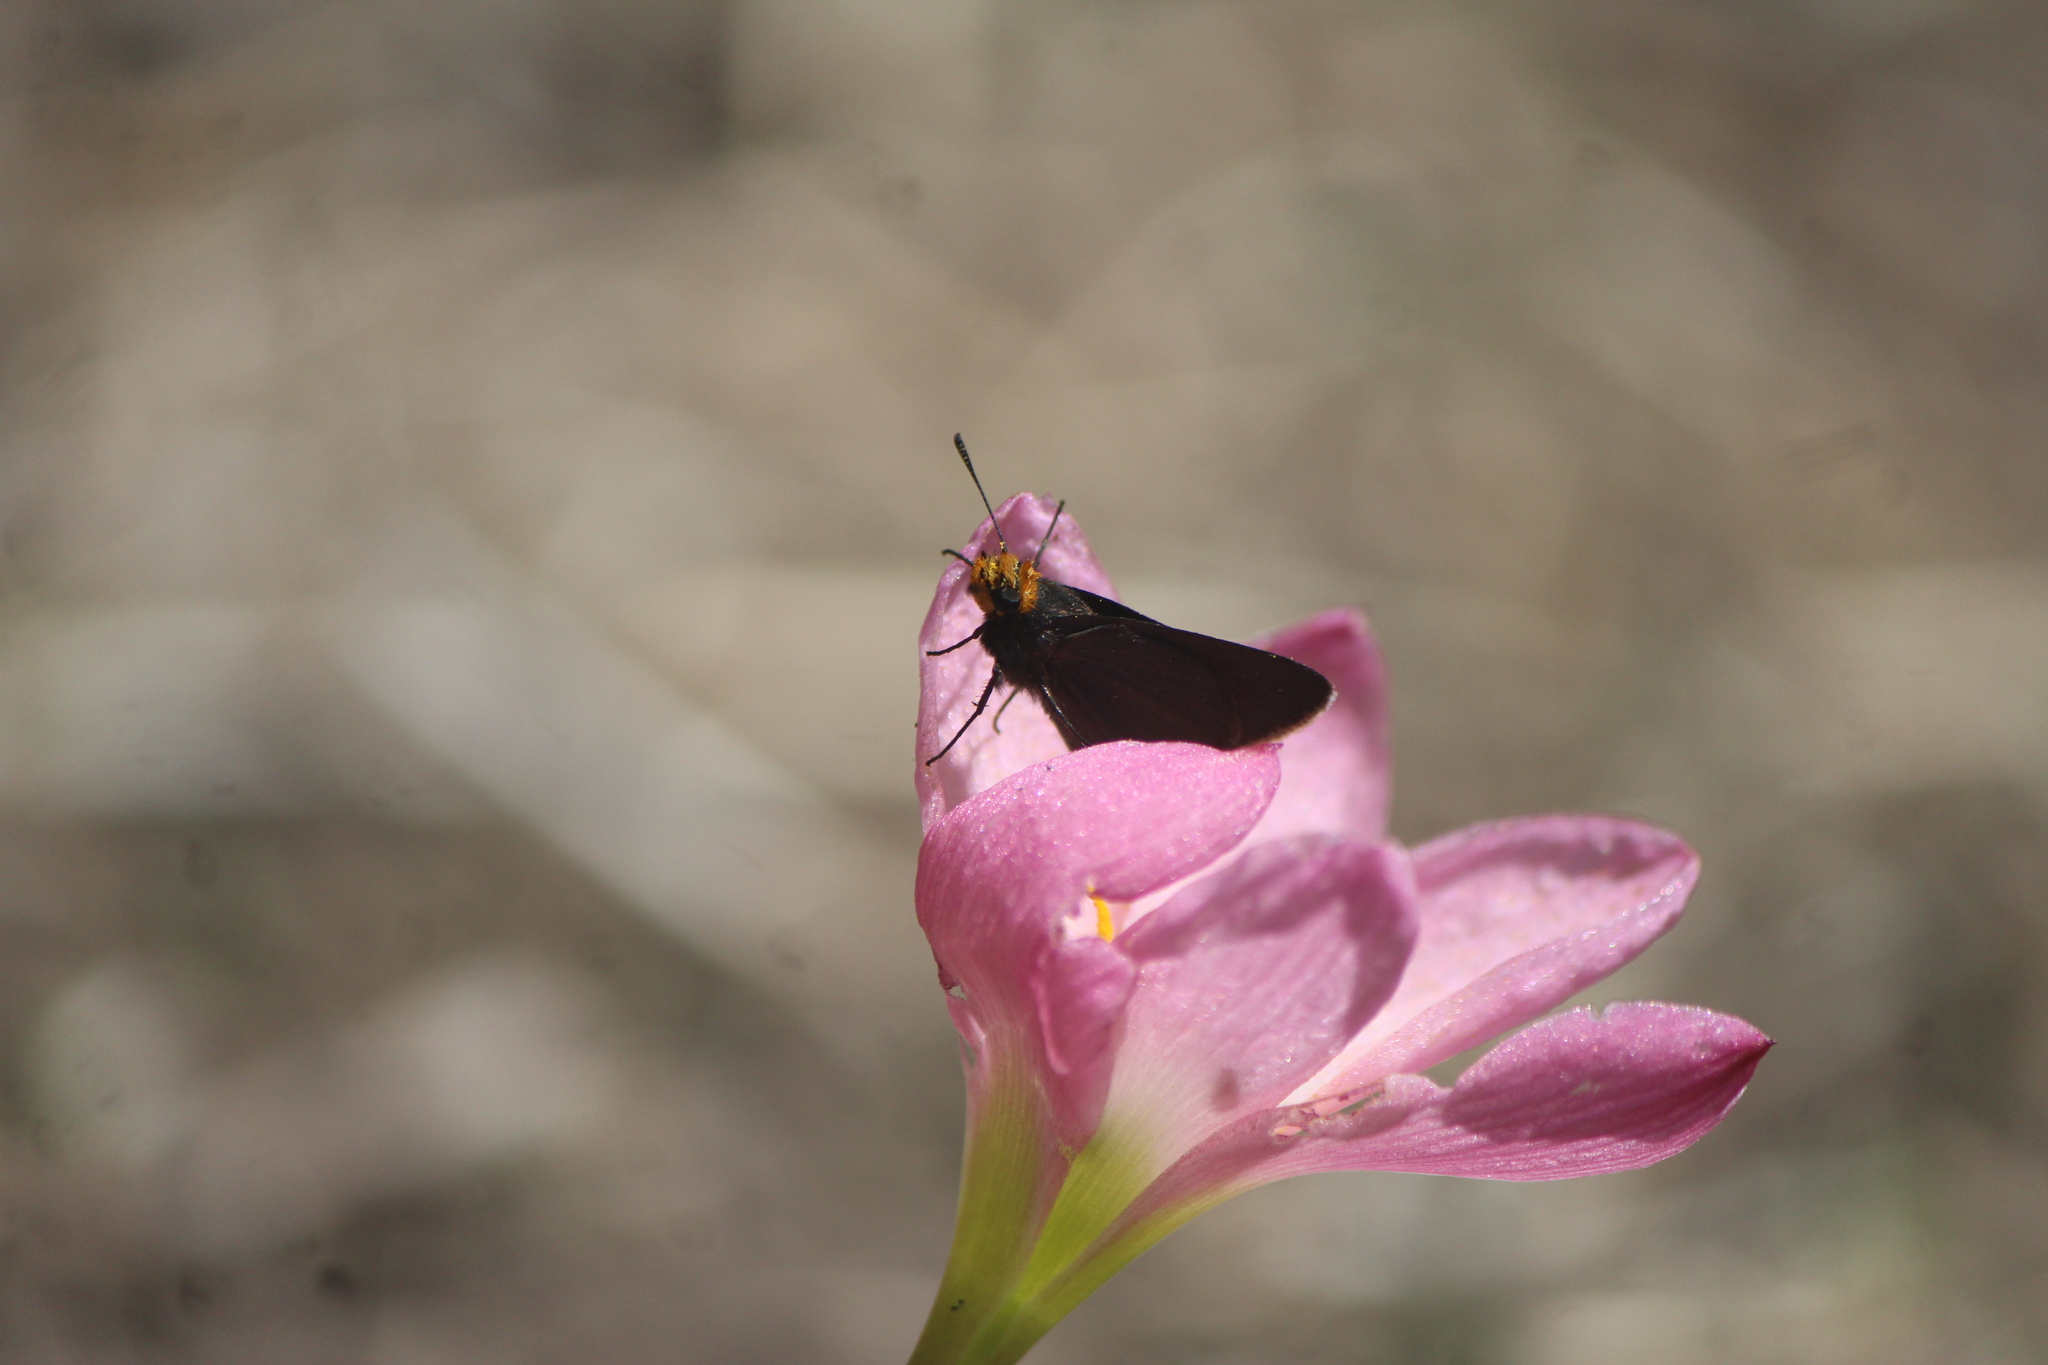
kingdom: Animalia
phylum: Arthropoda
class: Insecta
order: Lepidoptera
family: Hesperiidae
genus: Mastor
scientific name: Mastor fimbriata
